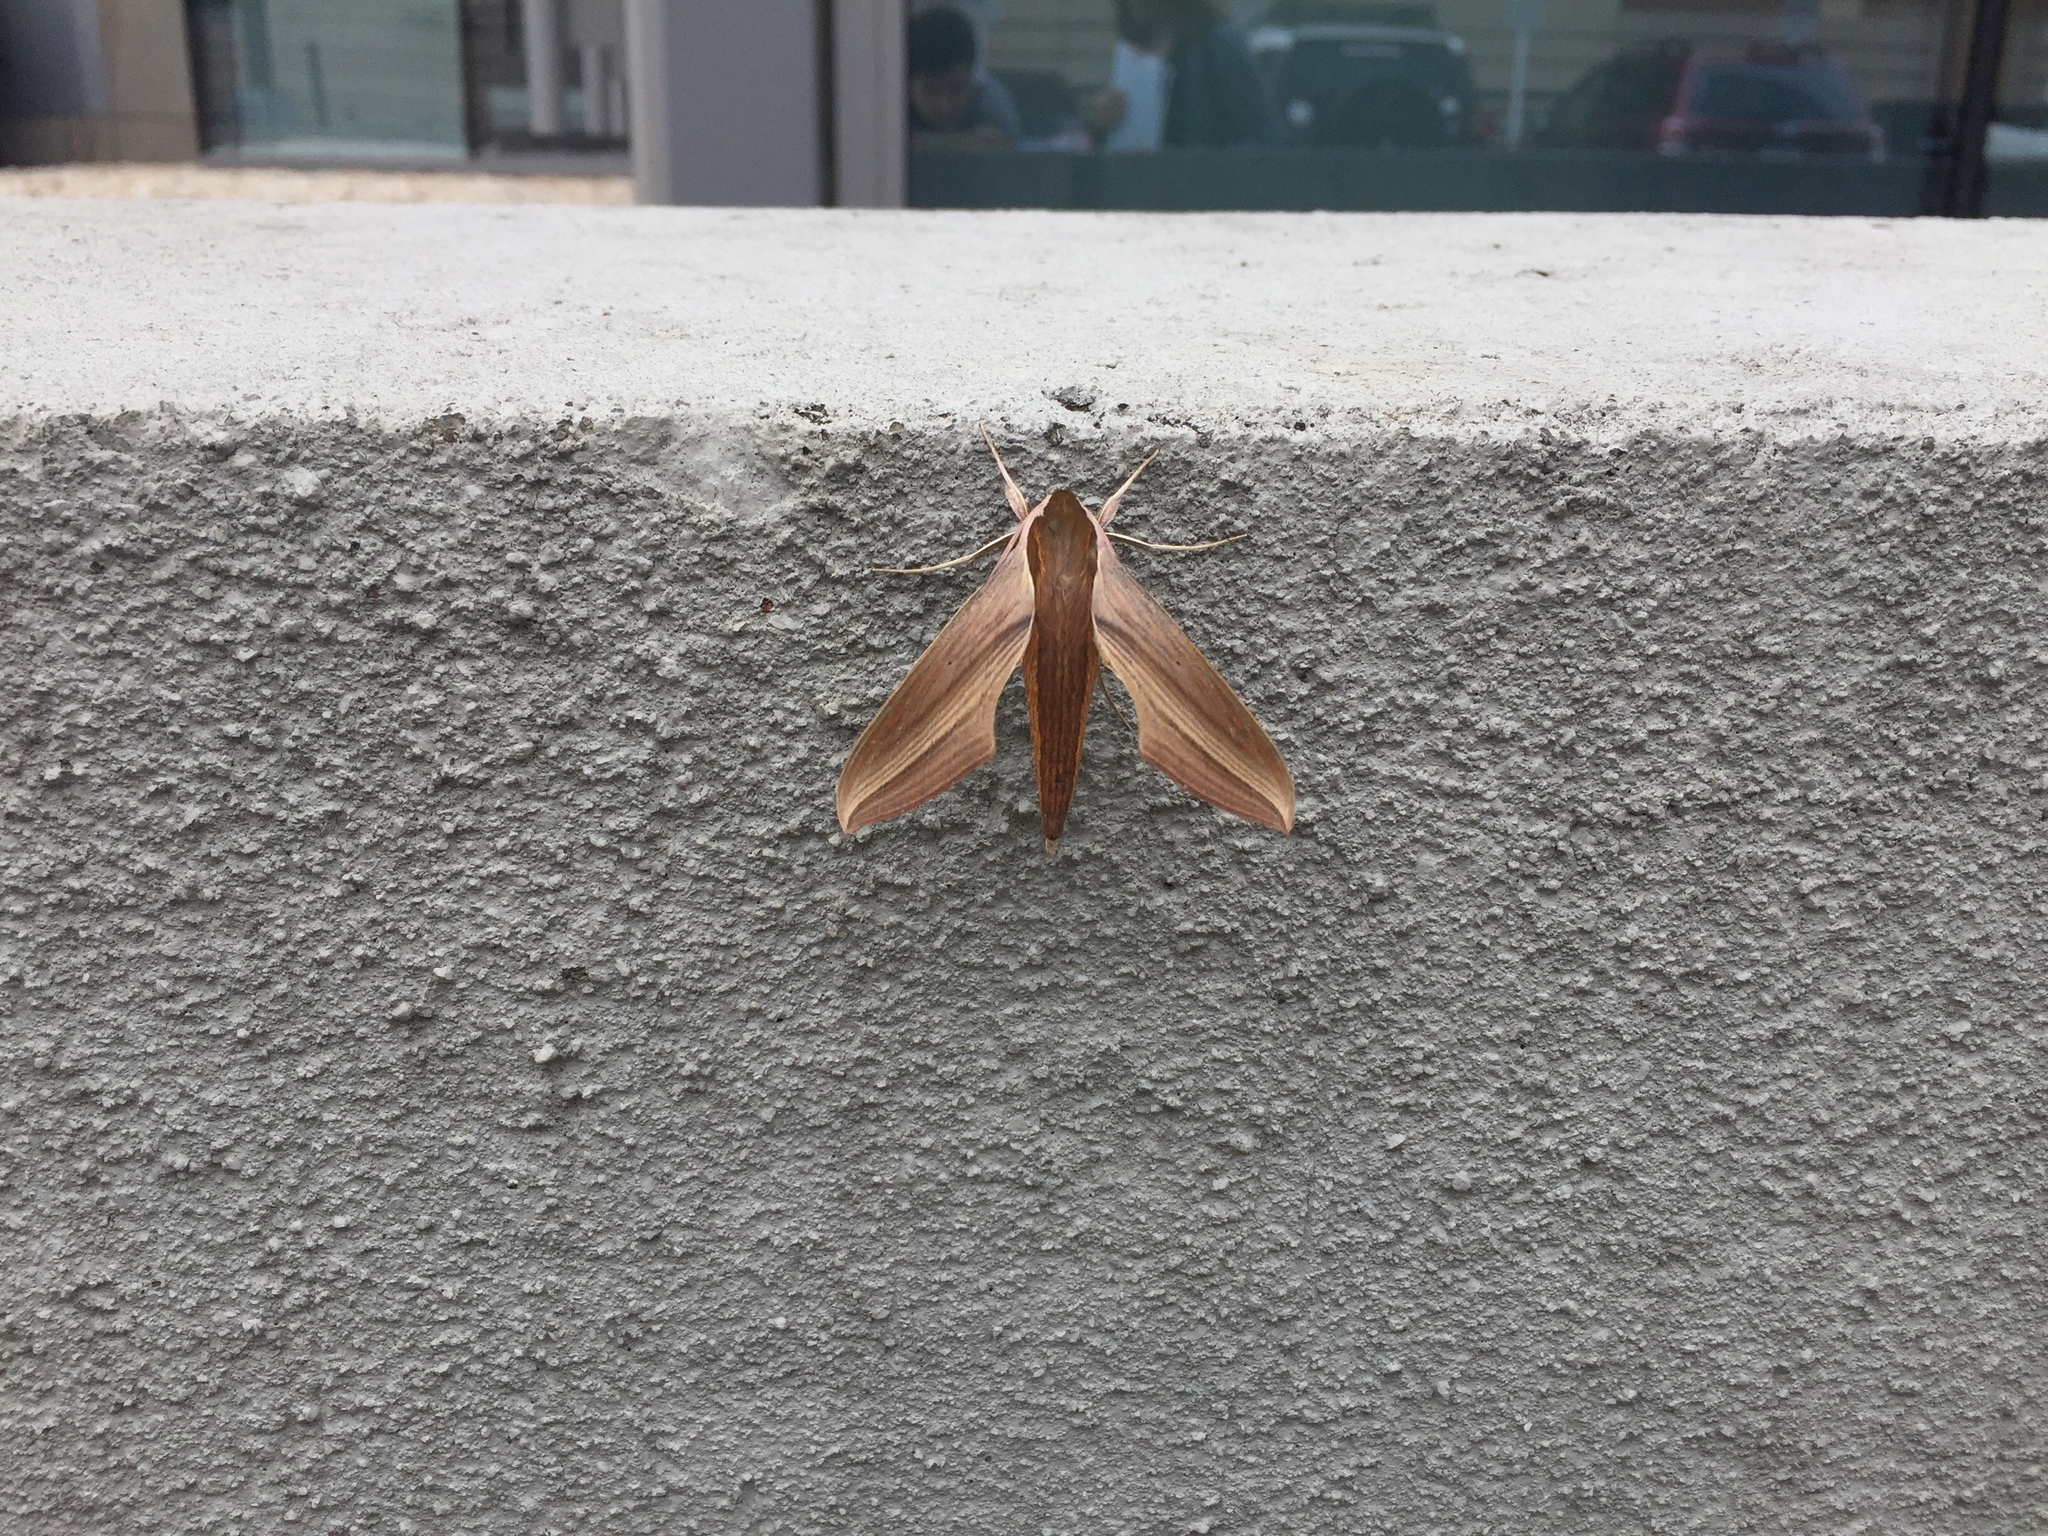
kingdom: Animalia
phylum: Arthropoda
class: Insecta
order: Lepidoptera
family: Sphingidae
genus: Xylophanes
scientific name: Xylophanes tersa
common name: Tersa sphinx
